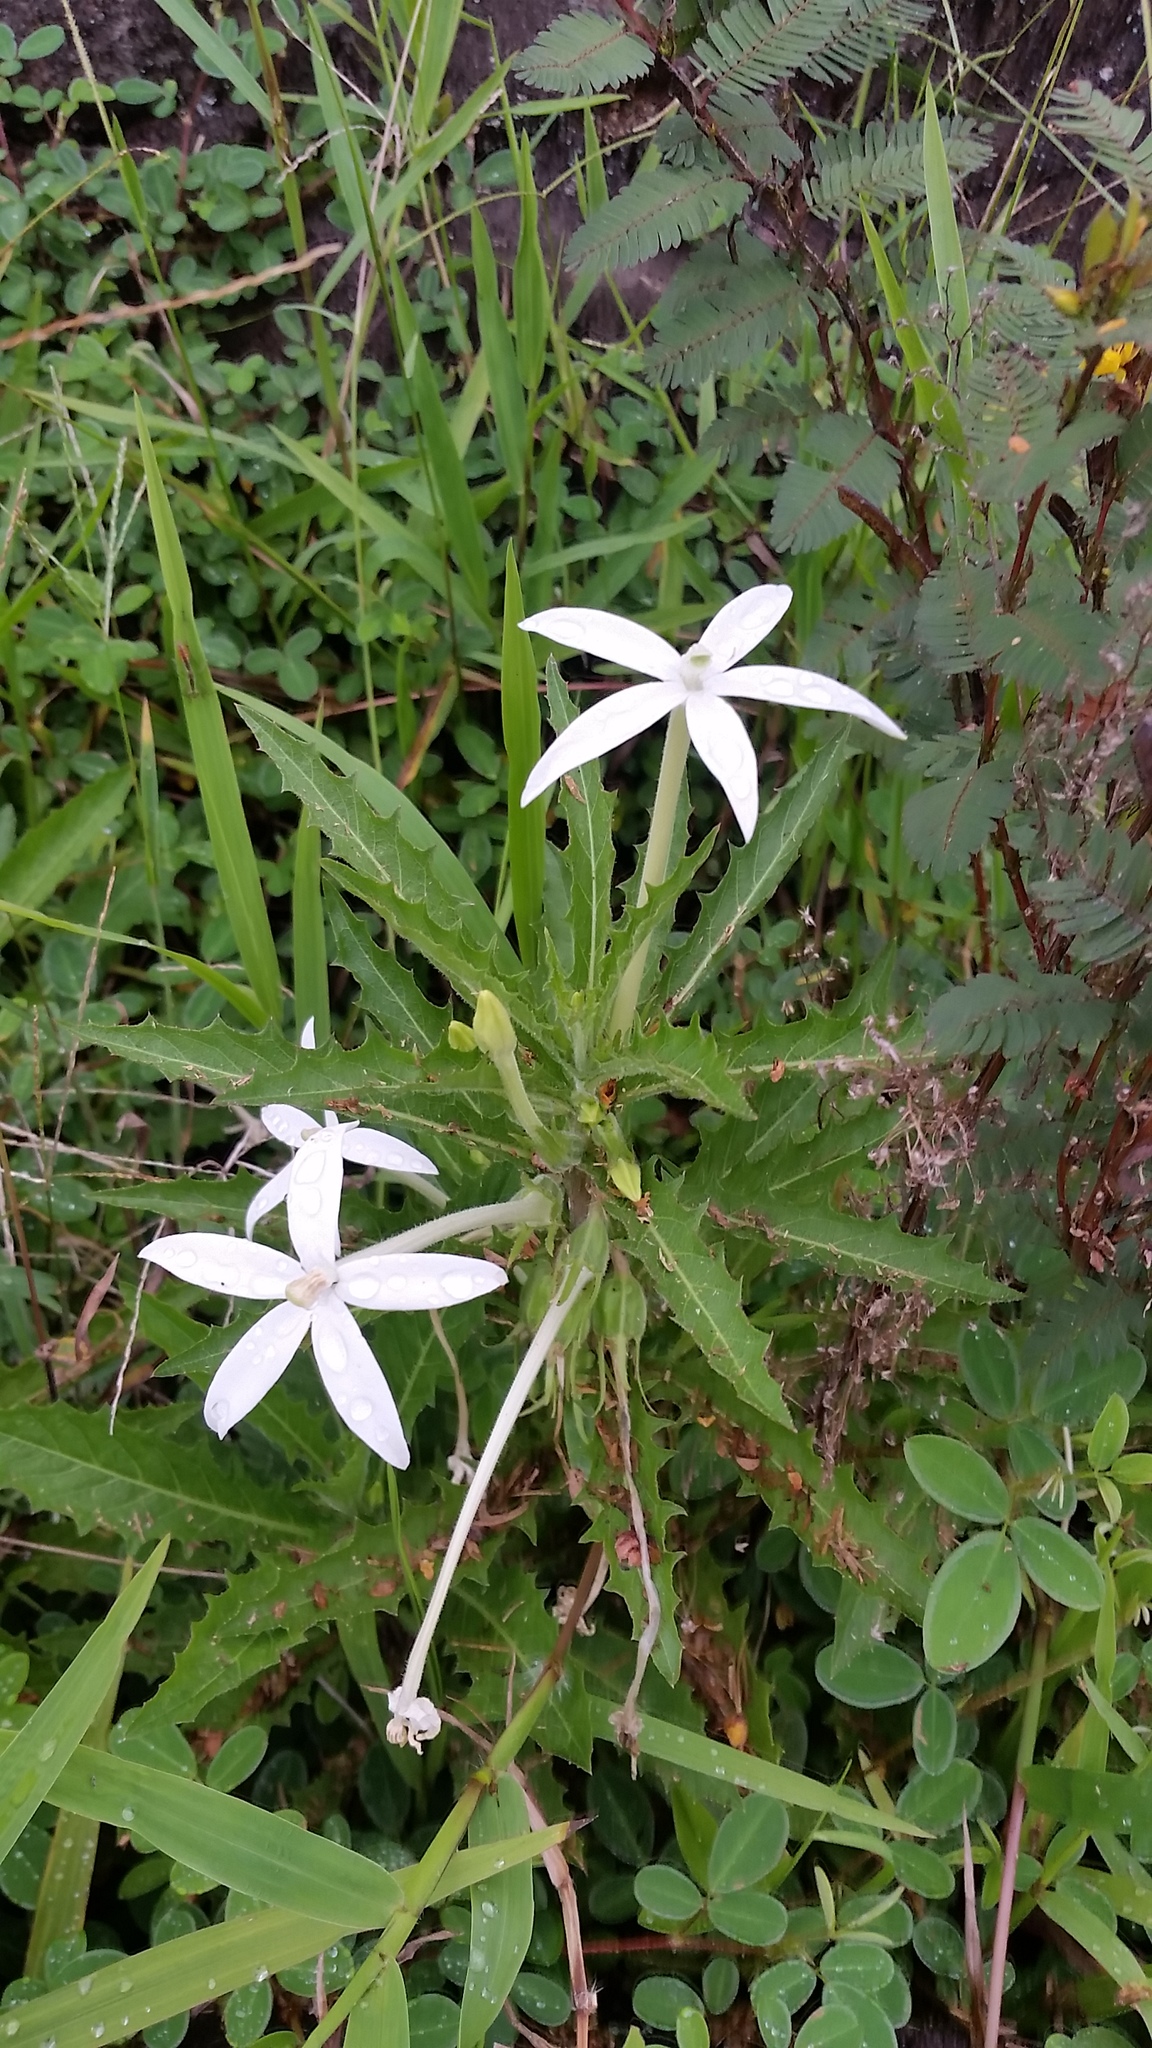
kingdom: Plantae
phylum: Tracheophyta
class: Magnoliopsida
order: Asterales
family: Campanulaceae
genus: Hippobroma
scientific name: Hippobroma longiflora
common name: Madamfate
